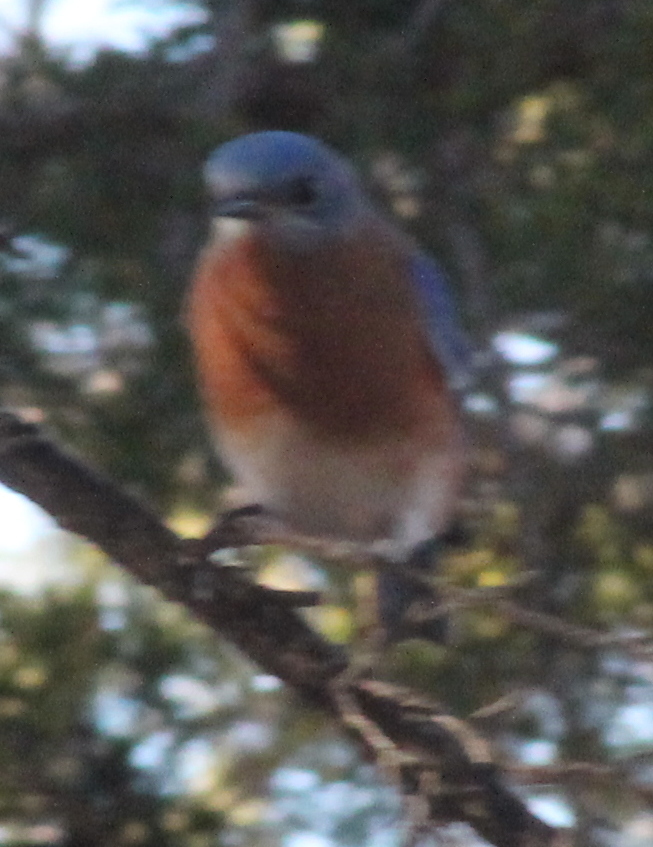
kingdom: Animalia
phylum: Chordata
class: Aves
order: Passeriformes
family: Turdidae
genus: Sialia
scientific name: Sialia sialis
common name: Eastern bluebird
